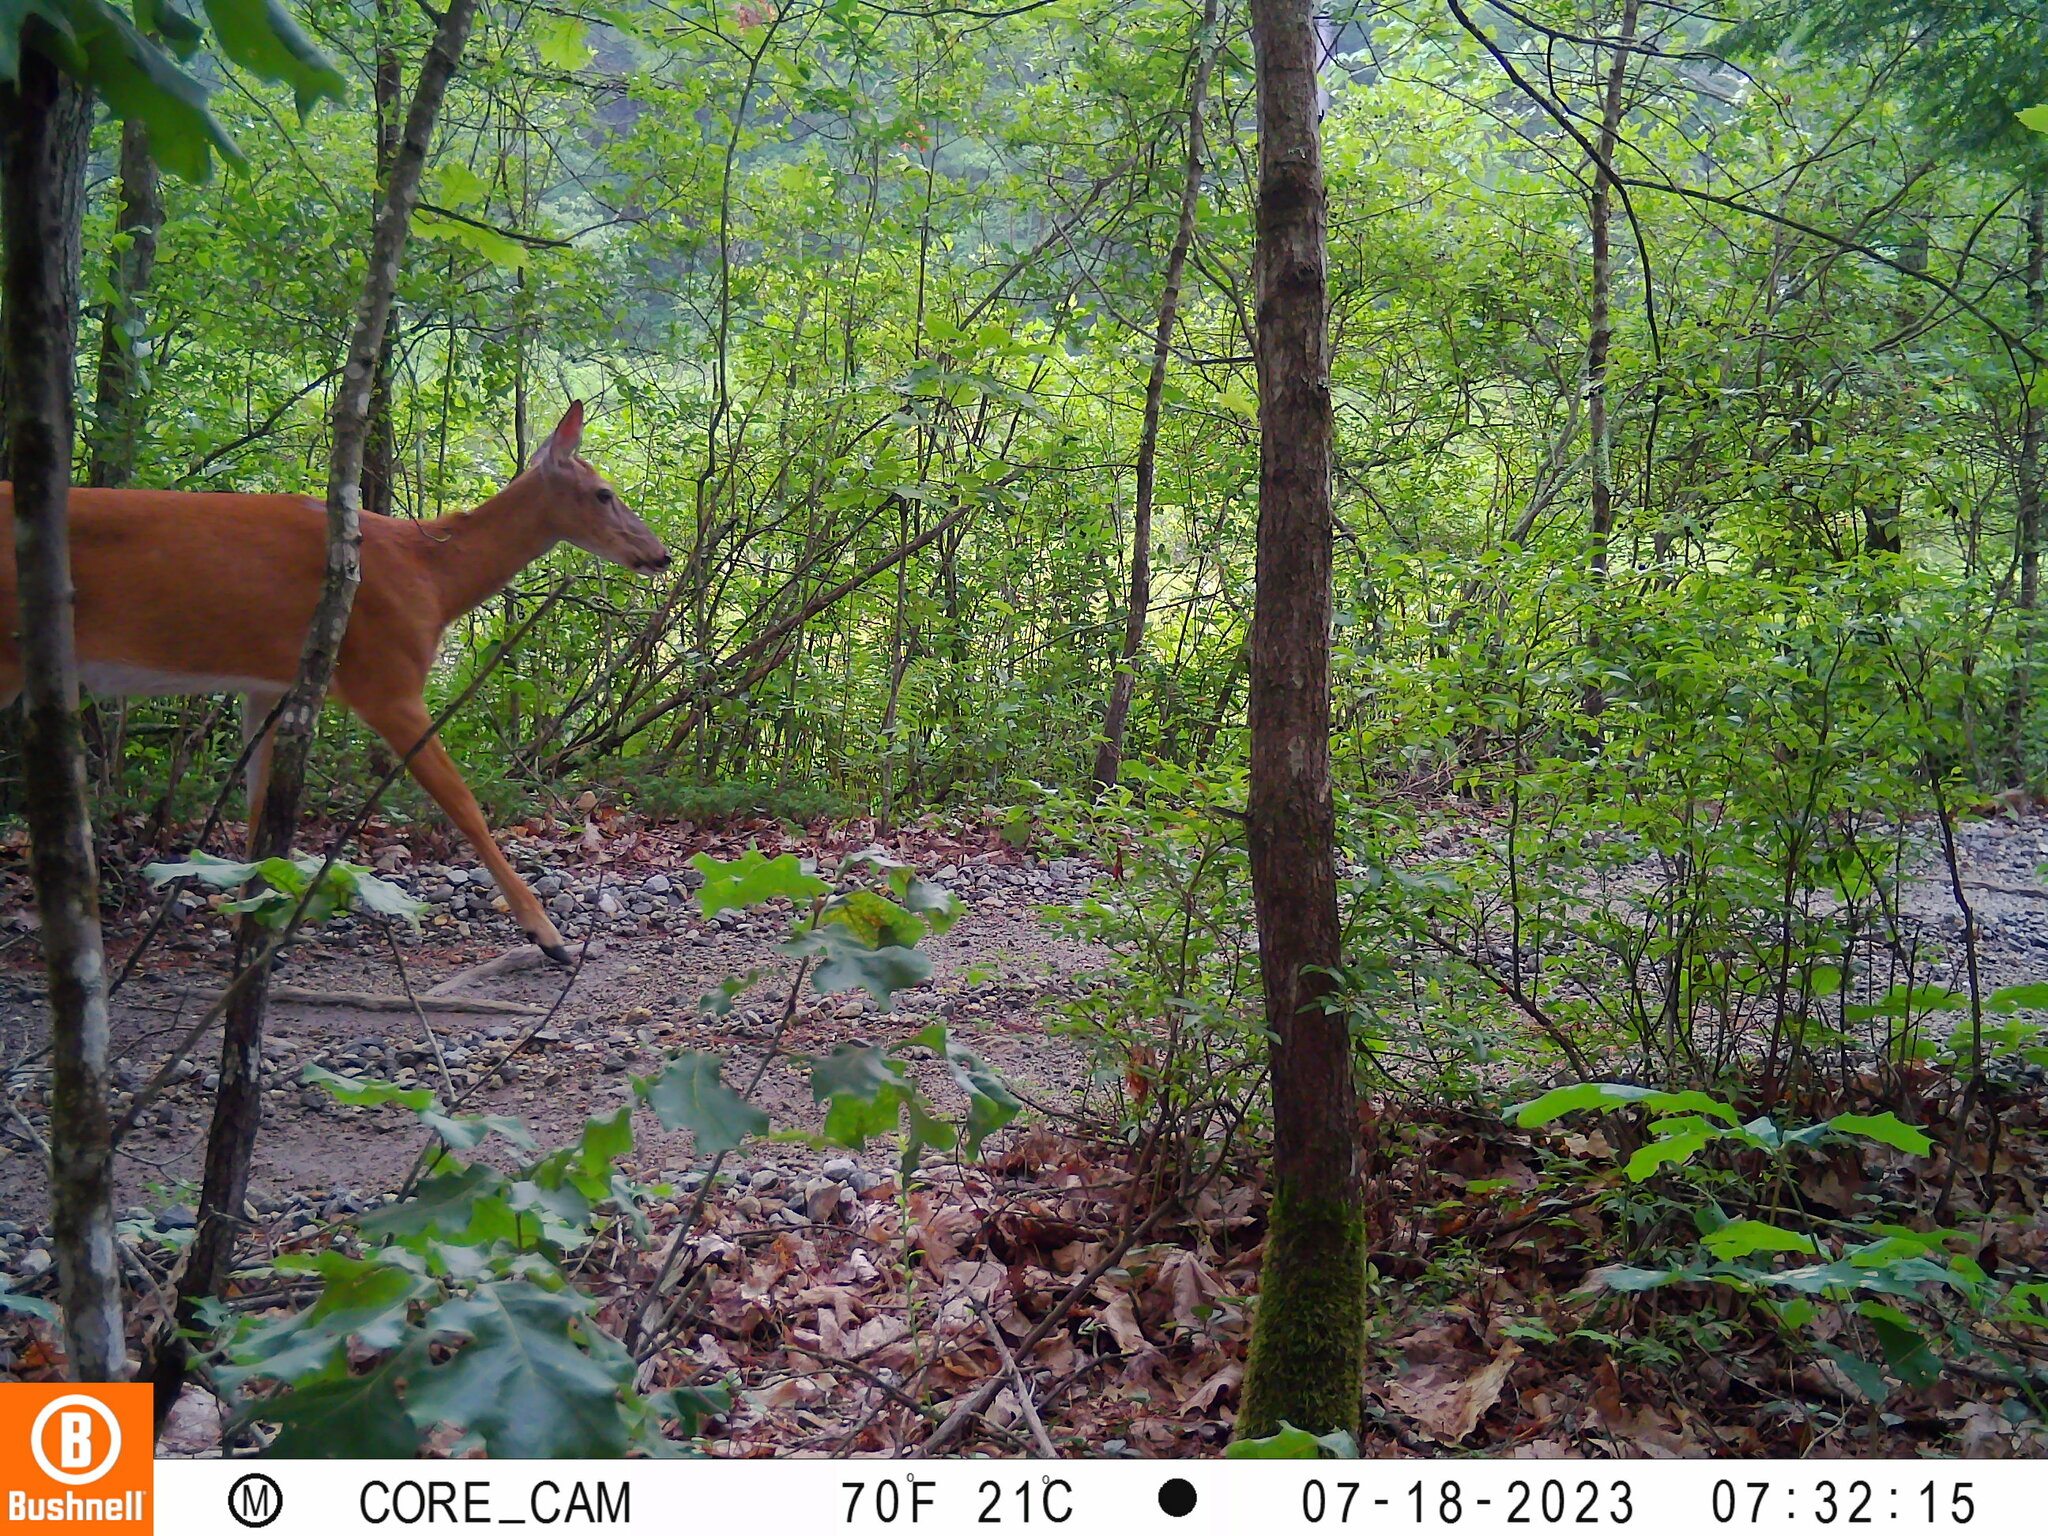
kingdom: Animalia
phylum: Chordata
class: Mammalia
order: Artiodactyla
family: Cervidae
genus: Odocoileus
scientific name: Odocoileus virginianus
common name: White-tailed deer
